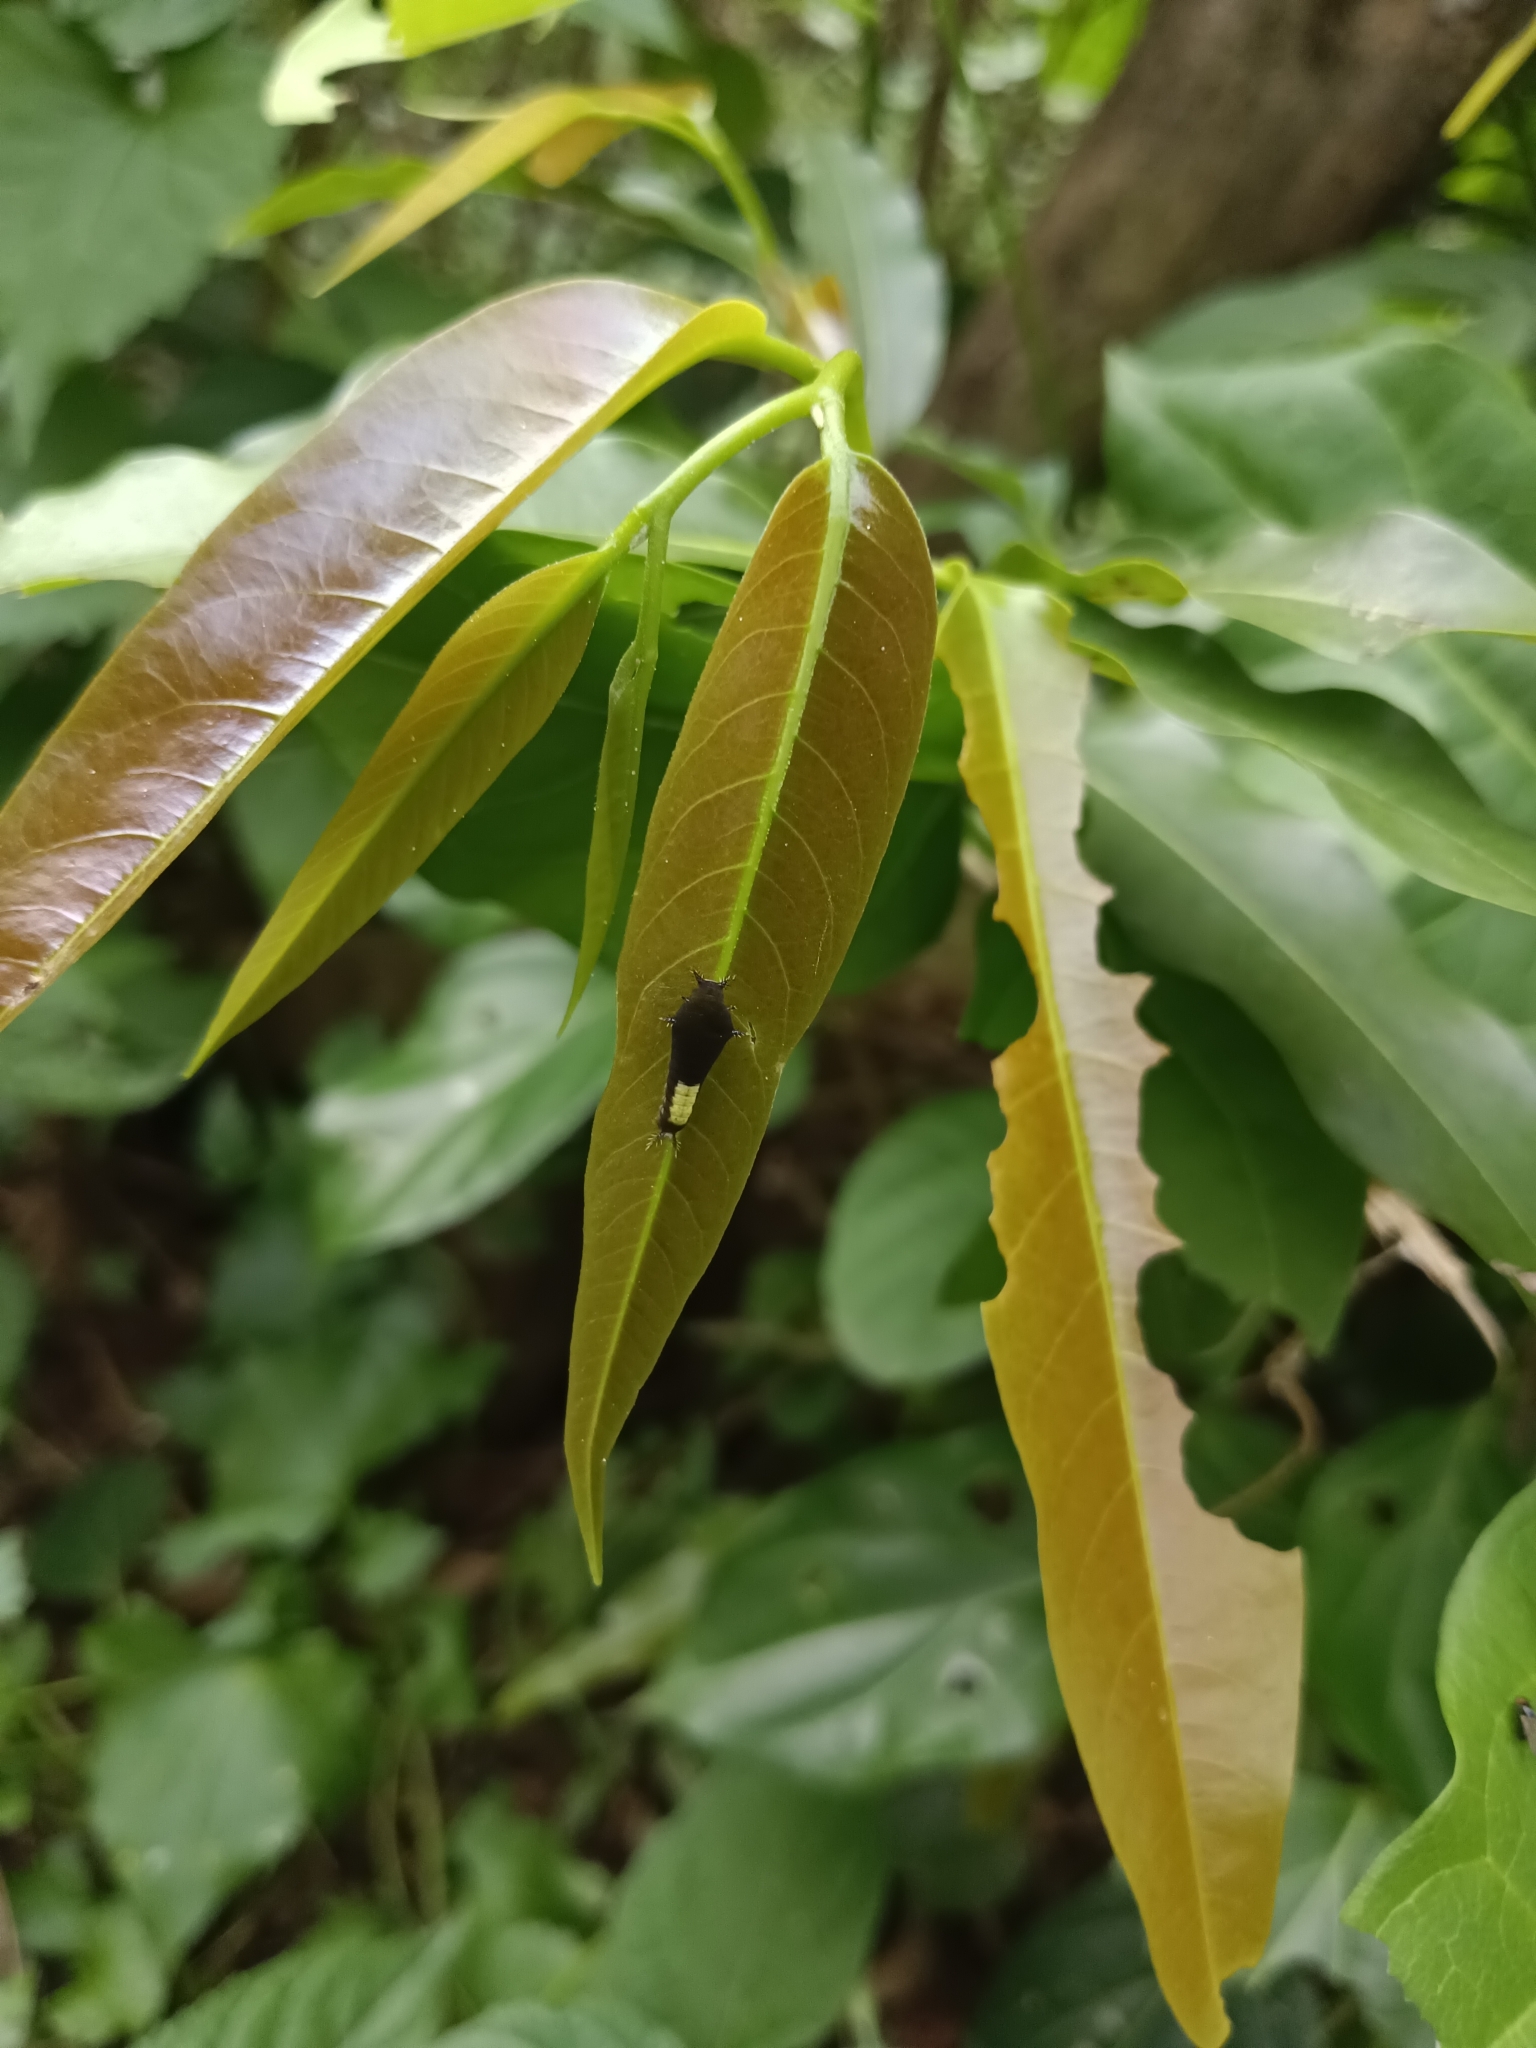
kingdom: Animalia
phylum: Arthropoda
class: Insecta
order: Lepidoptera
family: Papilionidae
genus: Graphium
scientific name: Graphium agamemnon
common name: Tailed jay
